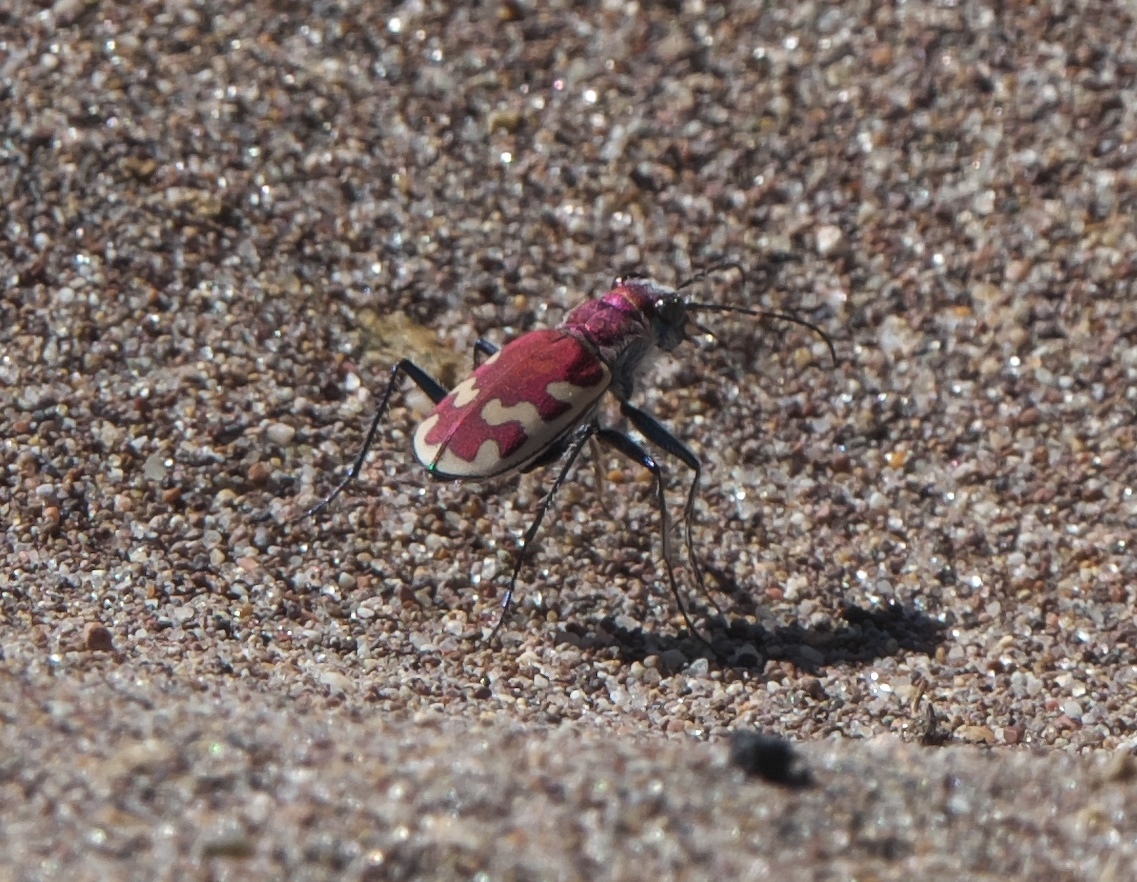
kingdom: Animalia
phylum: Arthropoda
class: Insecta
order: Coleoptera
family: Carabidae
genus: Cicindela
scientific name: Cicindela formosa
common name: Big sand tiger beetle
